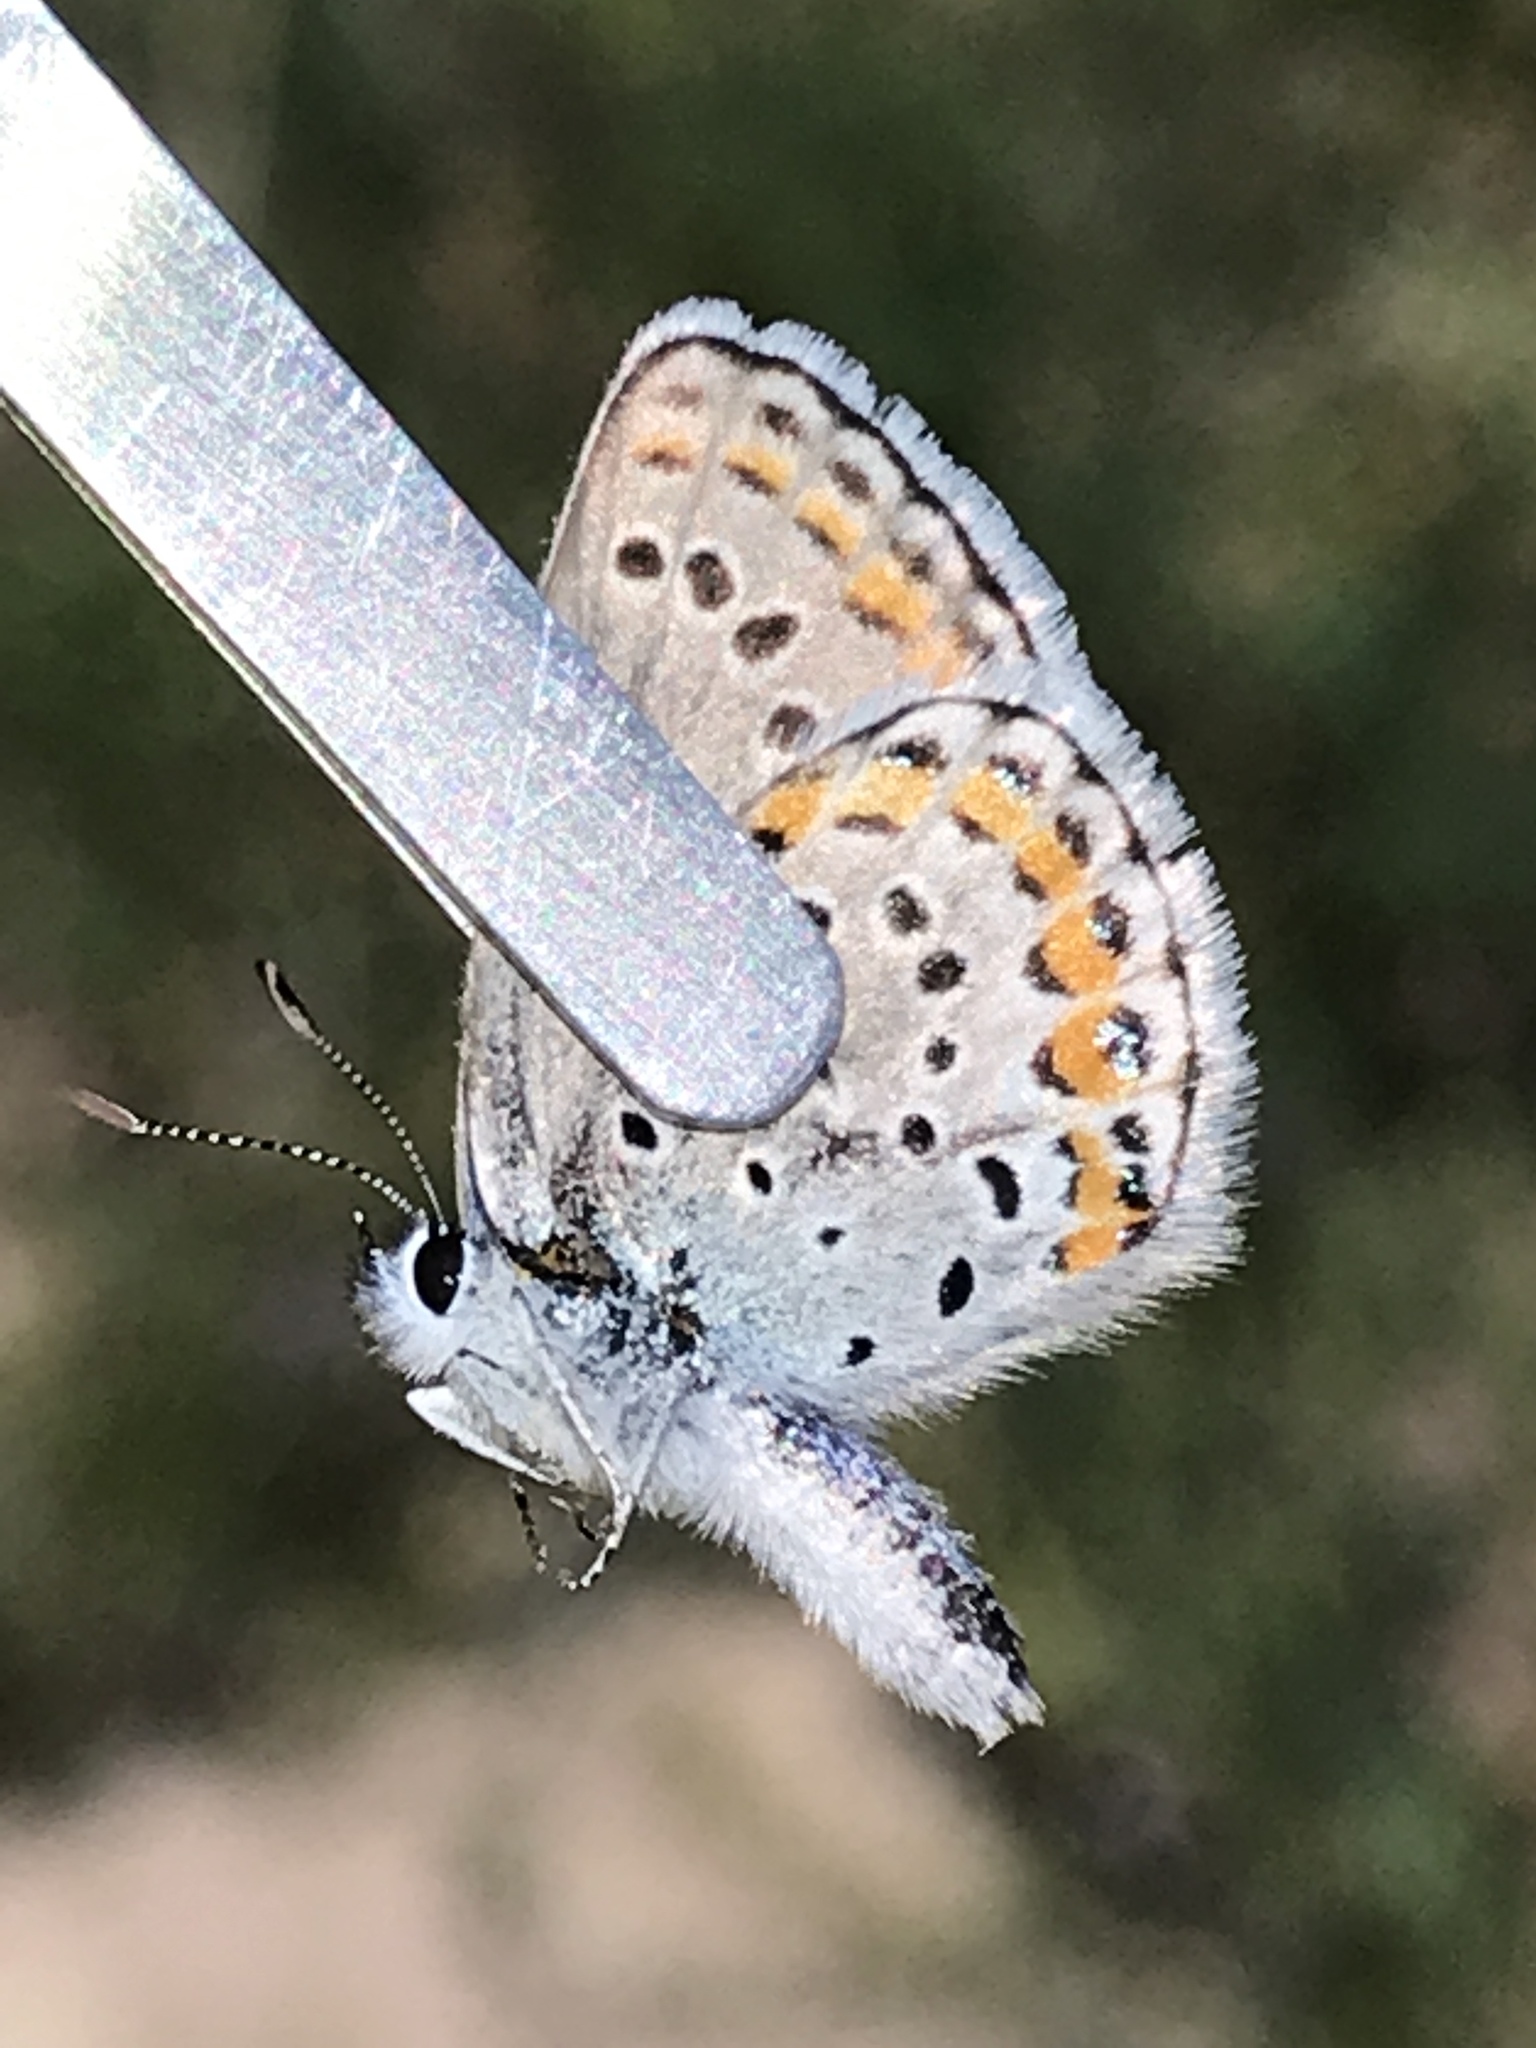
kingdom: Animalia
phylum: Arthropoda
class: Insecta
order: Lepidoptera
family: Lycaenidae
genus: Lycaeides
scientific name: Lycaeides melissa
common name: Melissa blue
